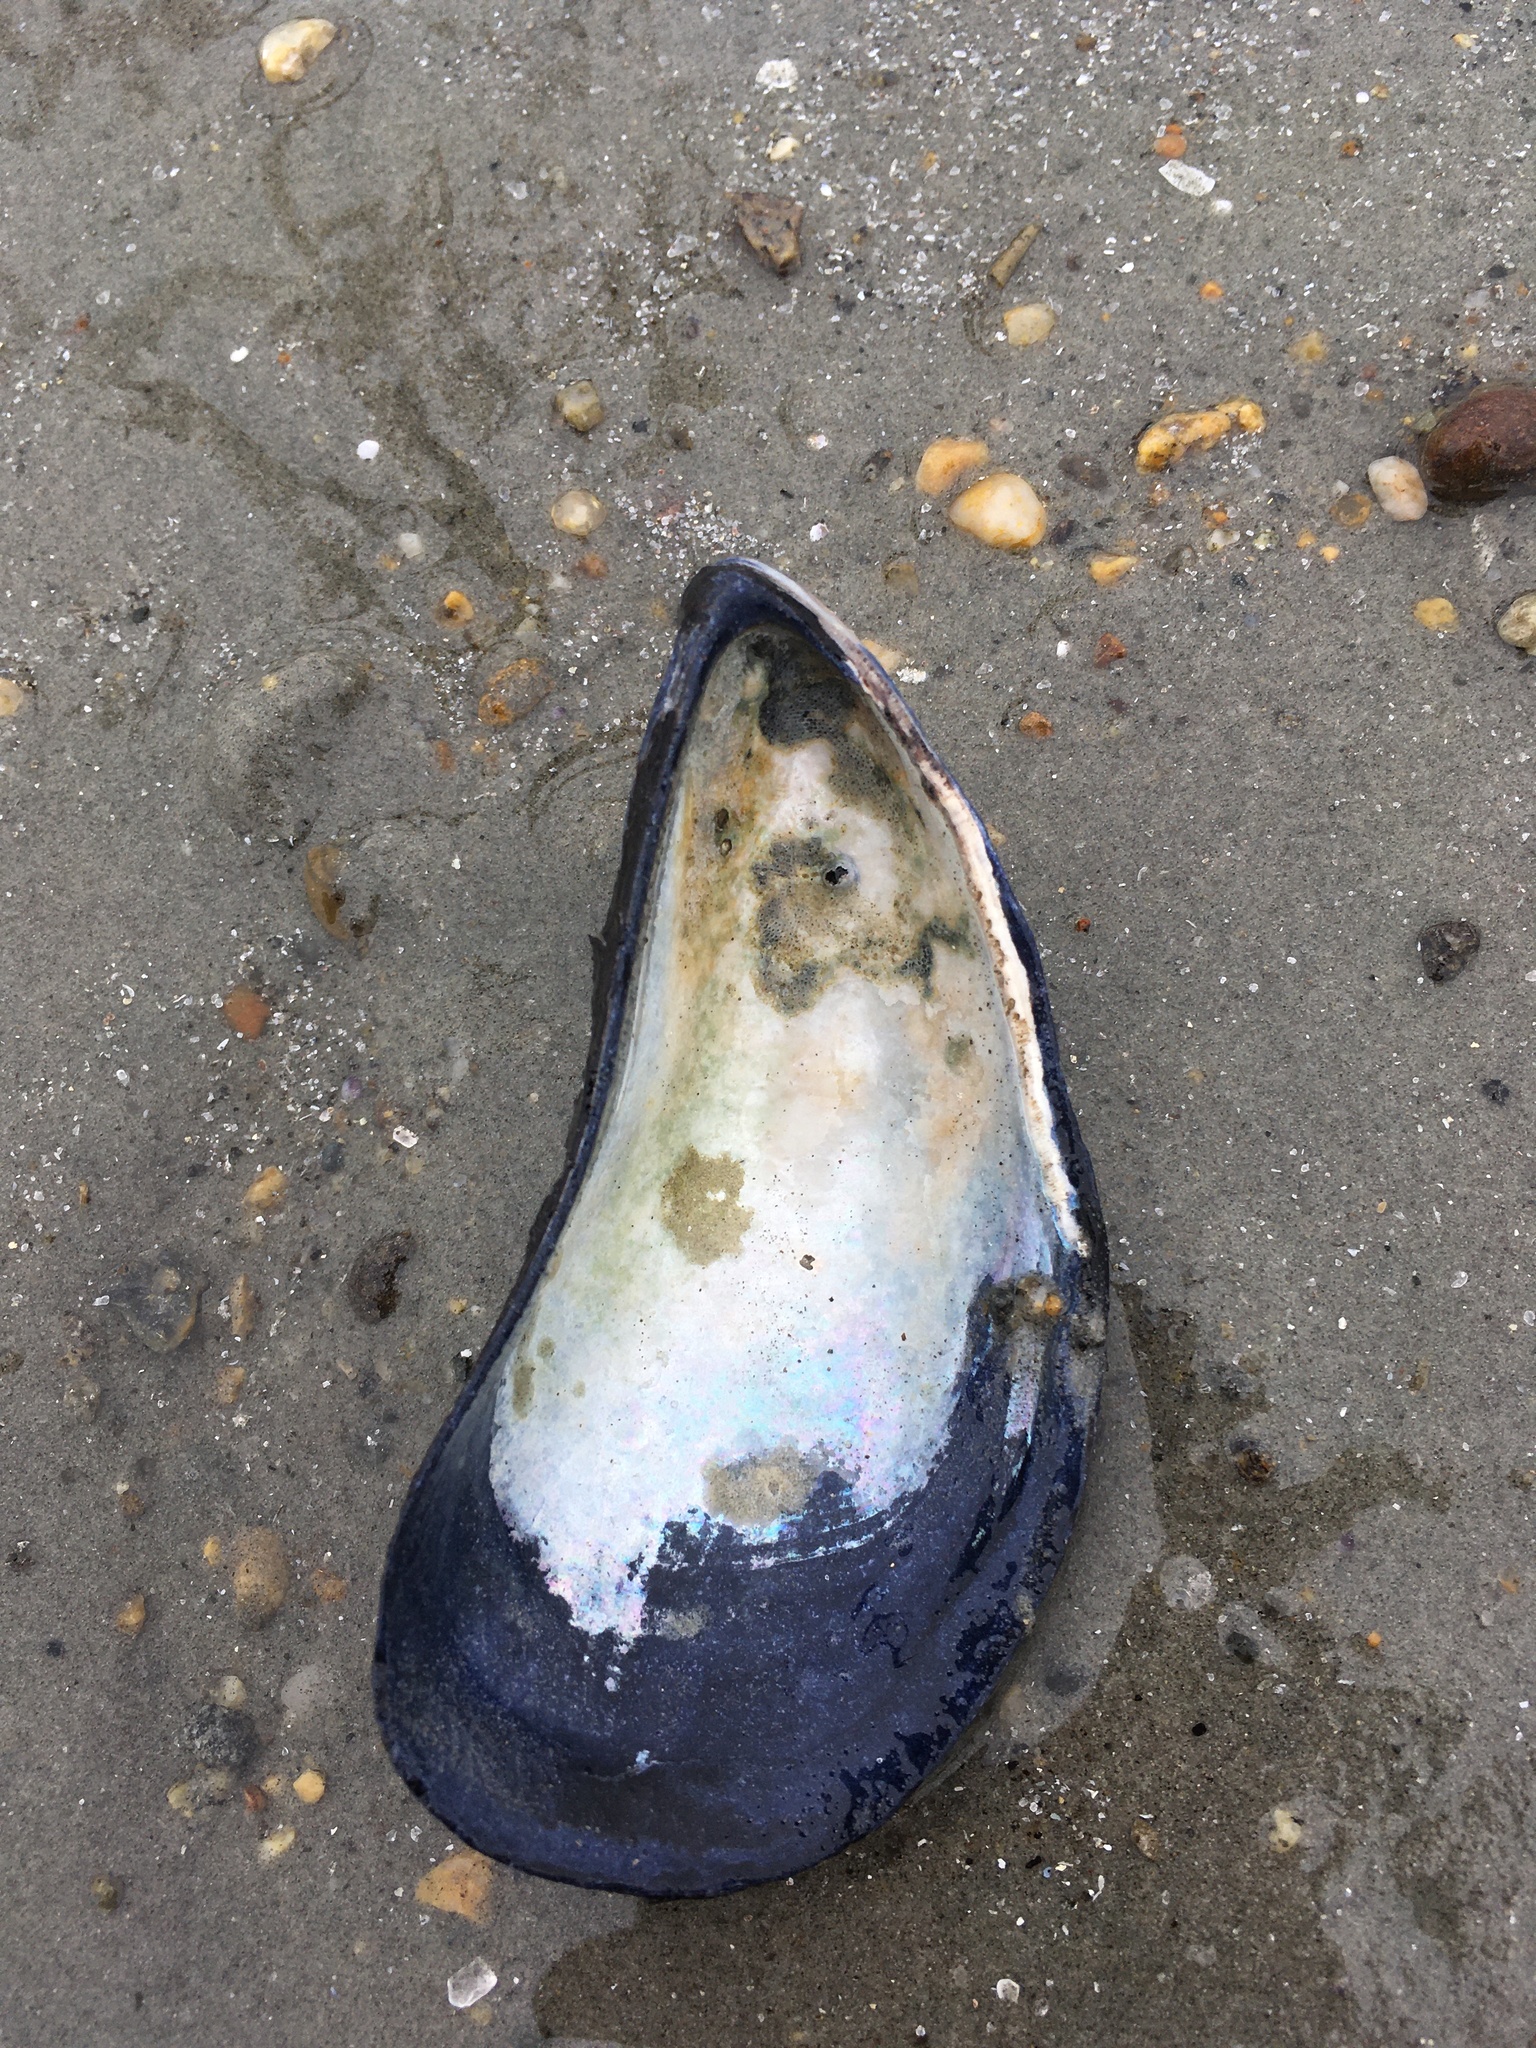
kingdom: Animalia
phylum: Mollusca
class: Bivalvia
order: Mytilida
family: Mytilidae
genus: Mytilus
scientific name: Mytilus edulis
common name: Blue mussel
